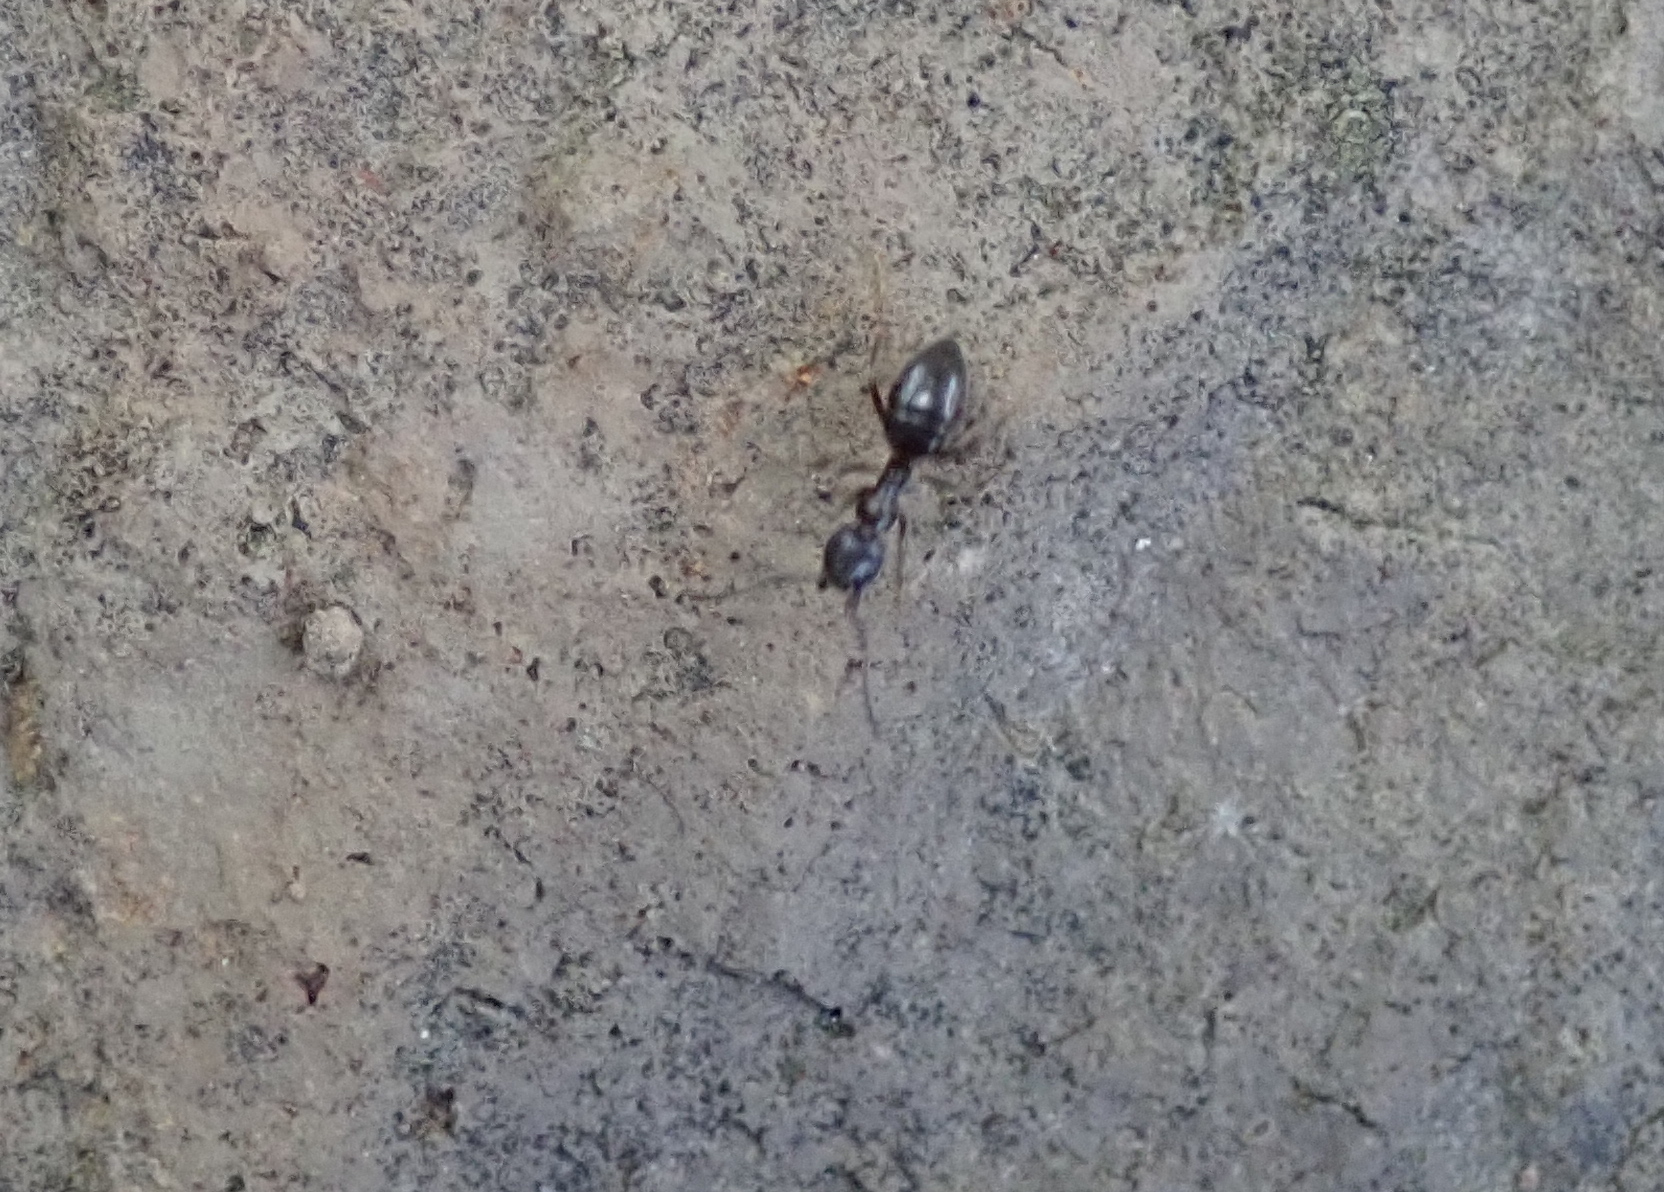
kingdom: Animalia
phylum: Arthropoda
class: Insecta
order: Hymenoptera
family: Formicidae
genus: Tapinoma
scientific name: Tapinoma sessile
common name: Odorous house ant
